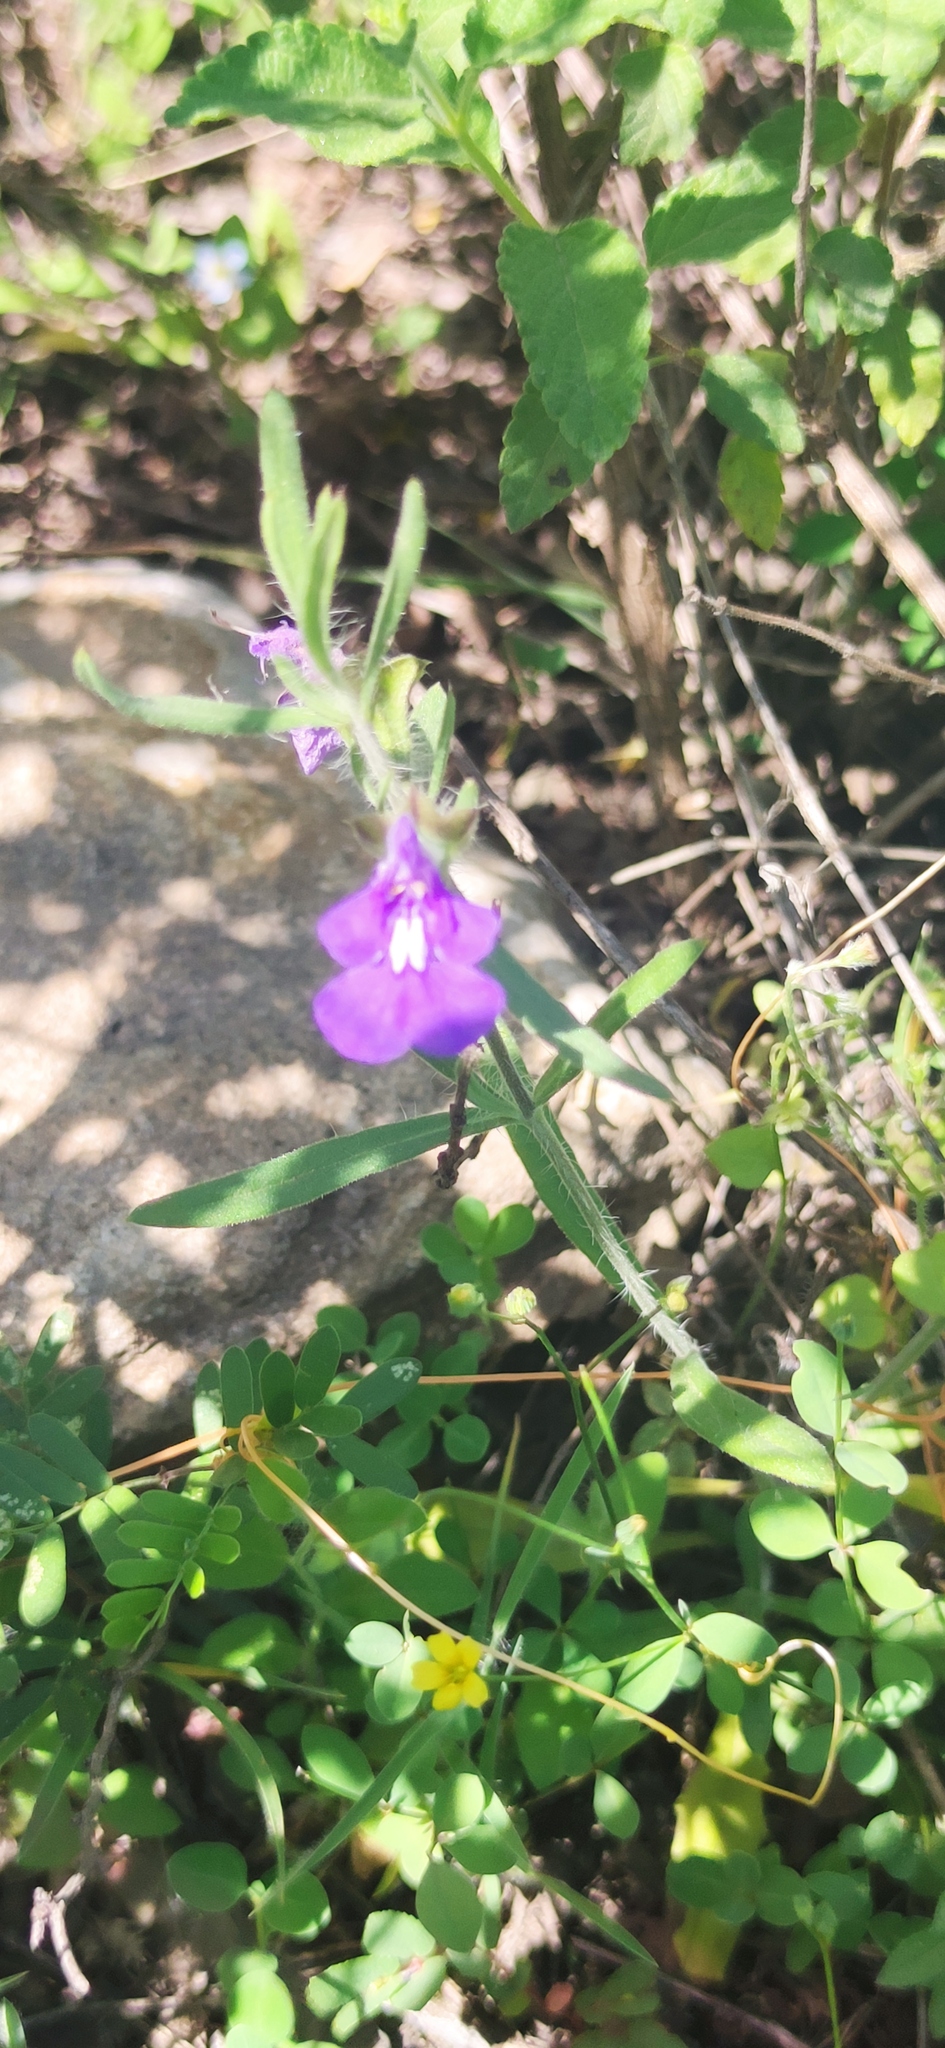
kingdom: Plantae
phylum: Tracheophyta
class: Magnoliopsida
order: Lamiales
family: Lamiaceae
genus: Salvia
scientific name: Salvia texana
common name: Texas sage
